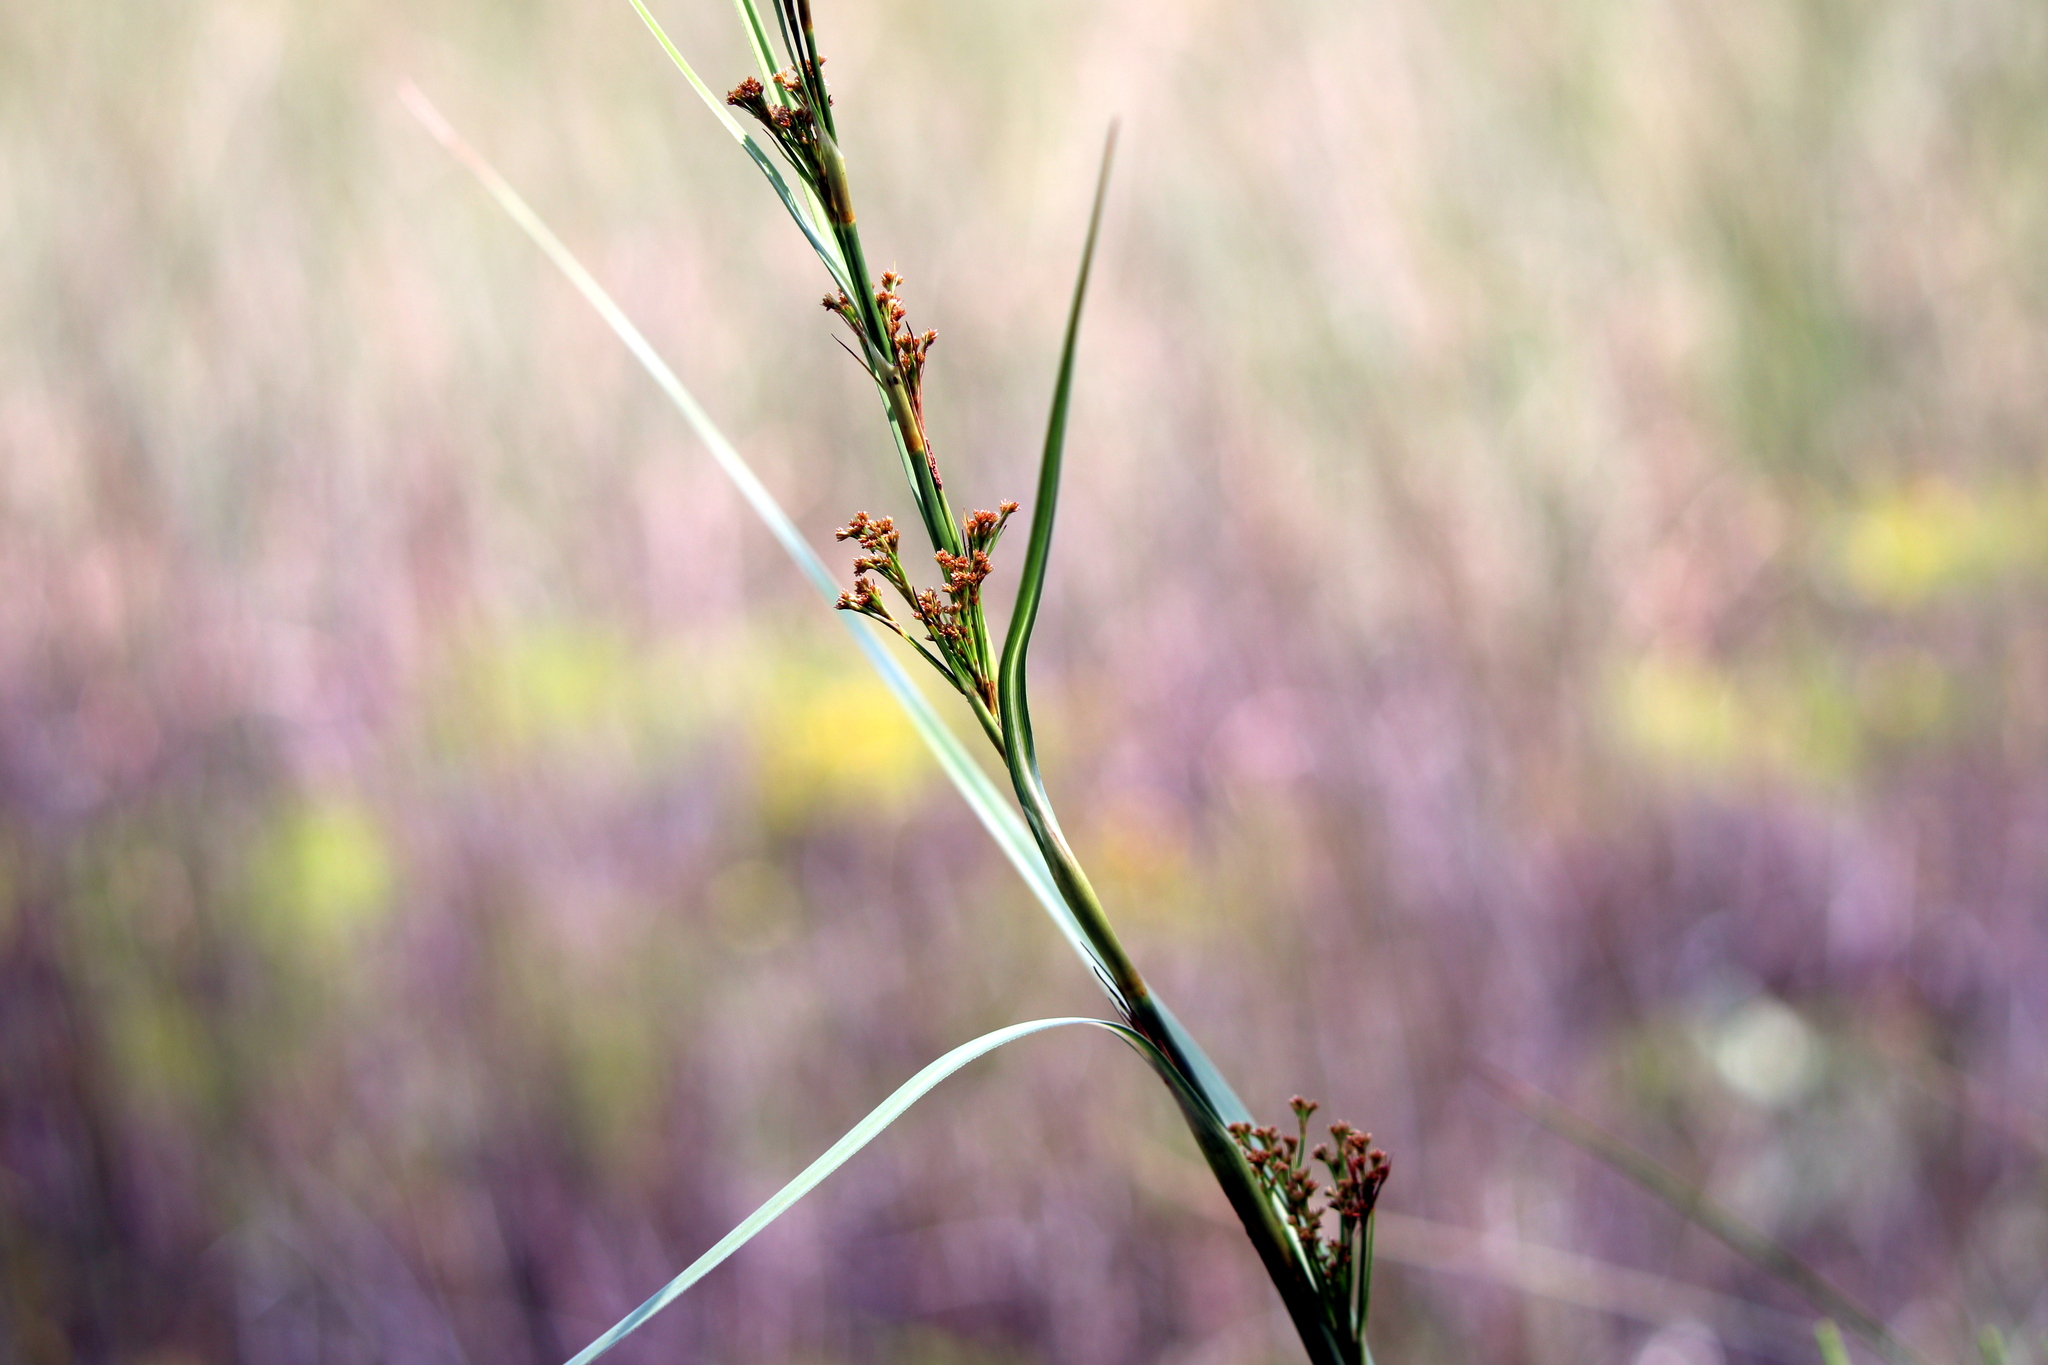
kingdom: Plantae
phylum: Tracheophyta
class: Liliopsida
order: Poales
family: Cyperaceae
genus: Cladium
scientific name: Cladium mariscus
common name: Great fen-sedge
